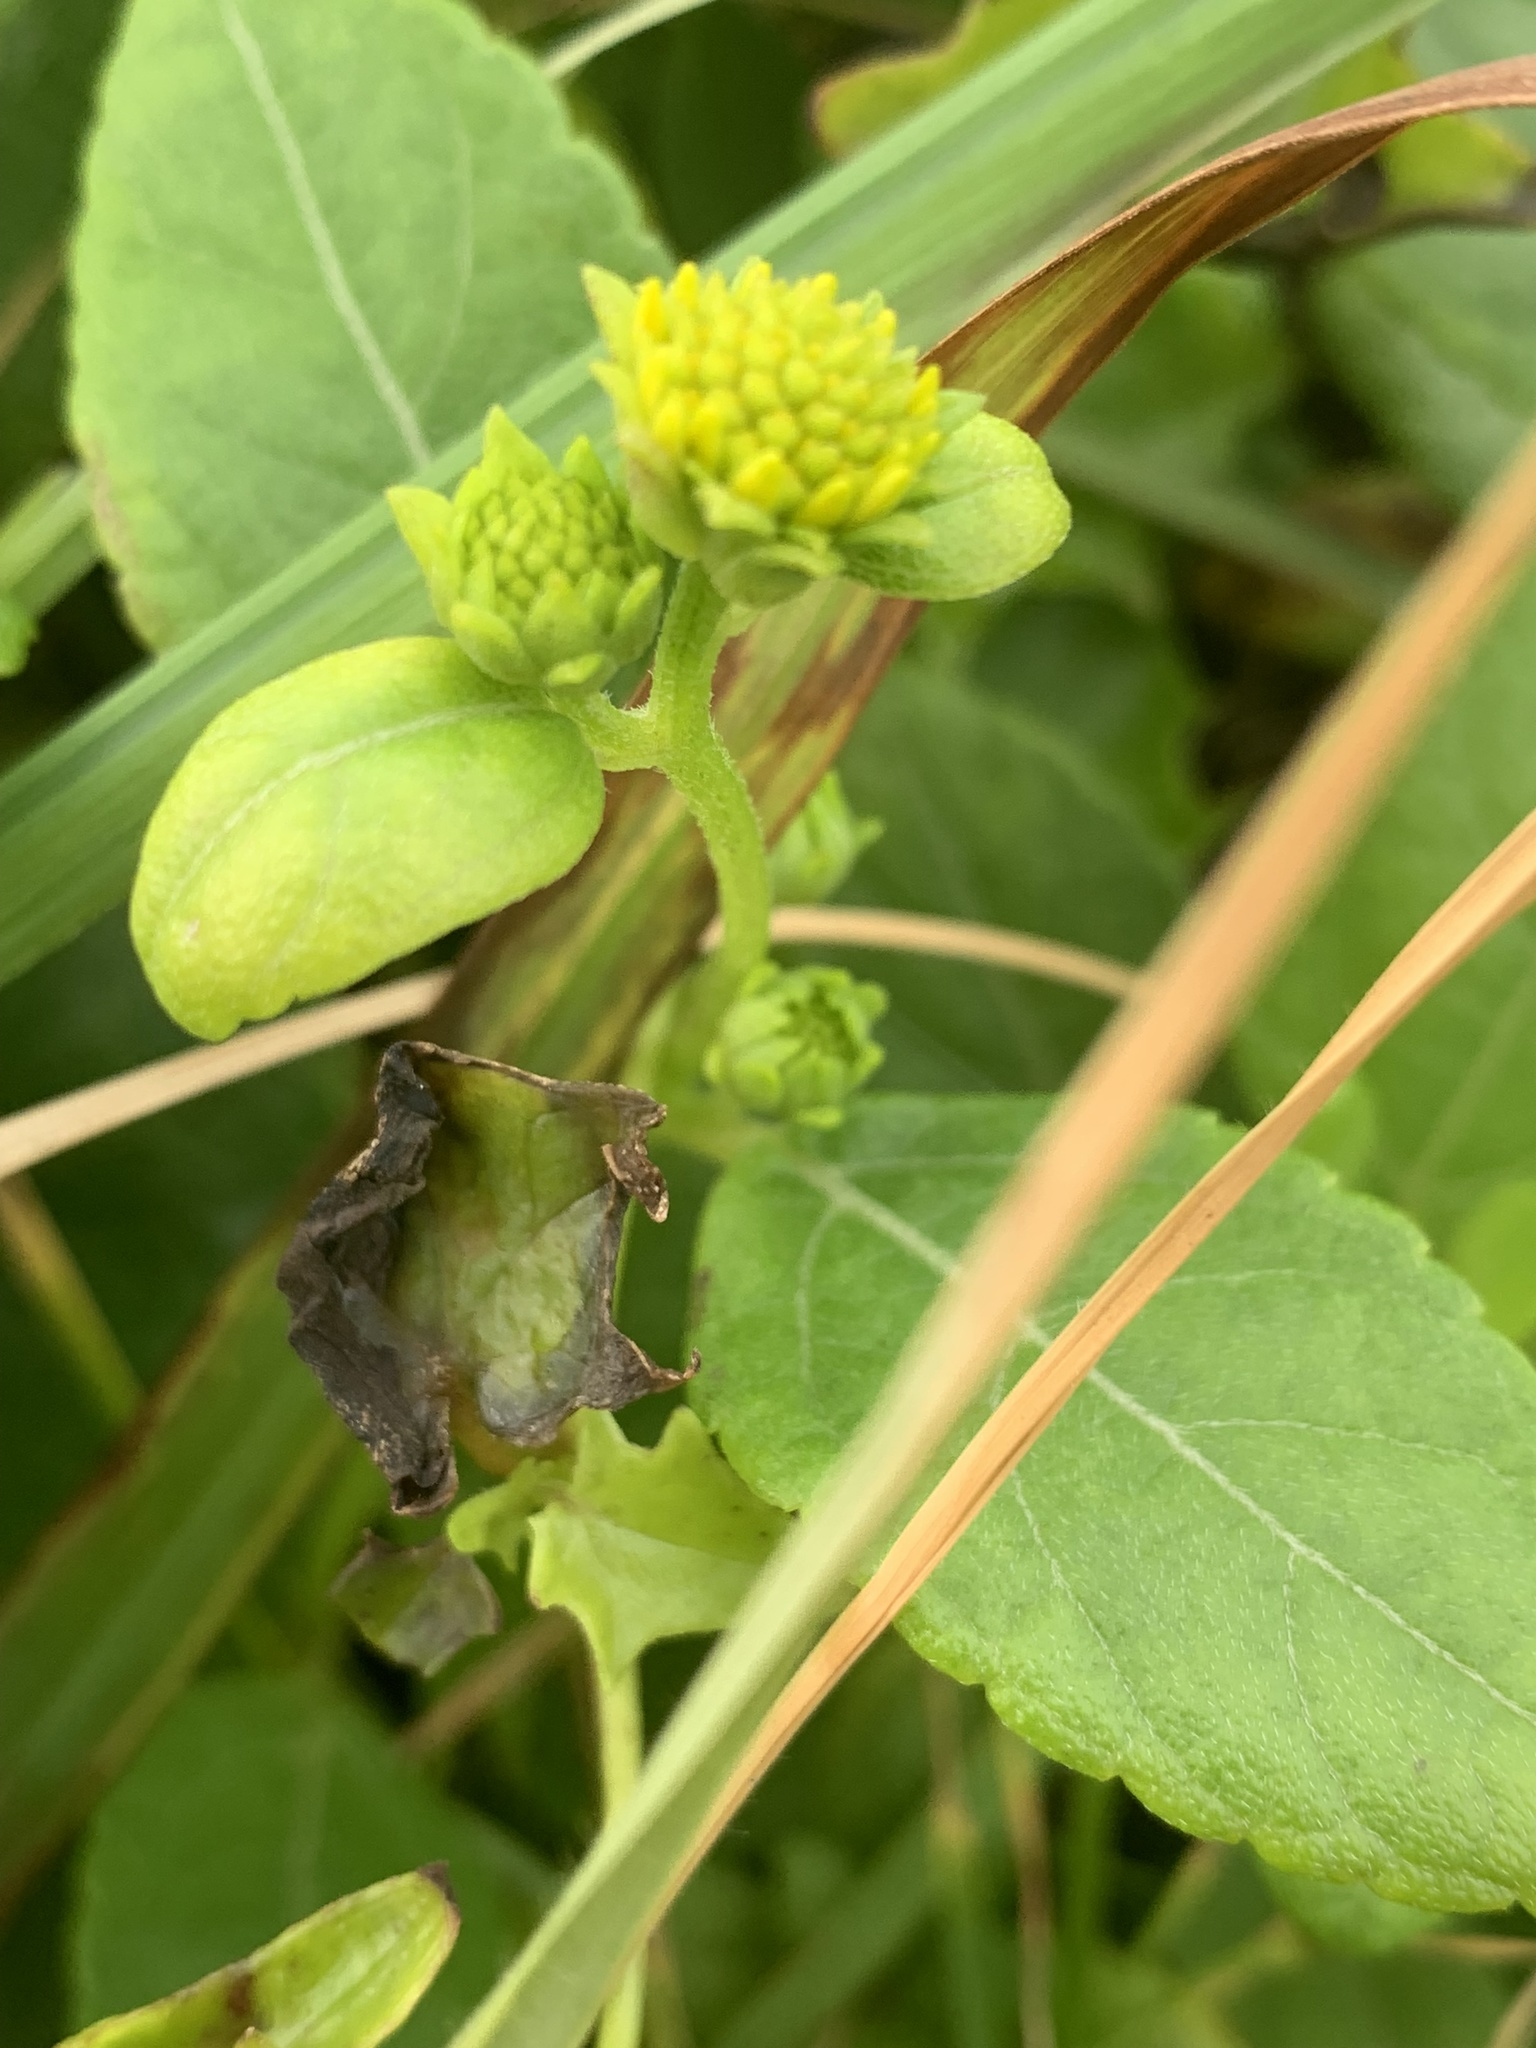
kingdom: Plantae
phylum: Tracheophyta
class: Magnoliopsida
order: Asterales
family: Asteraceae
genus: Wollastonia
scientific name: Wollastonia uniflora
